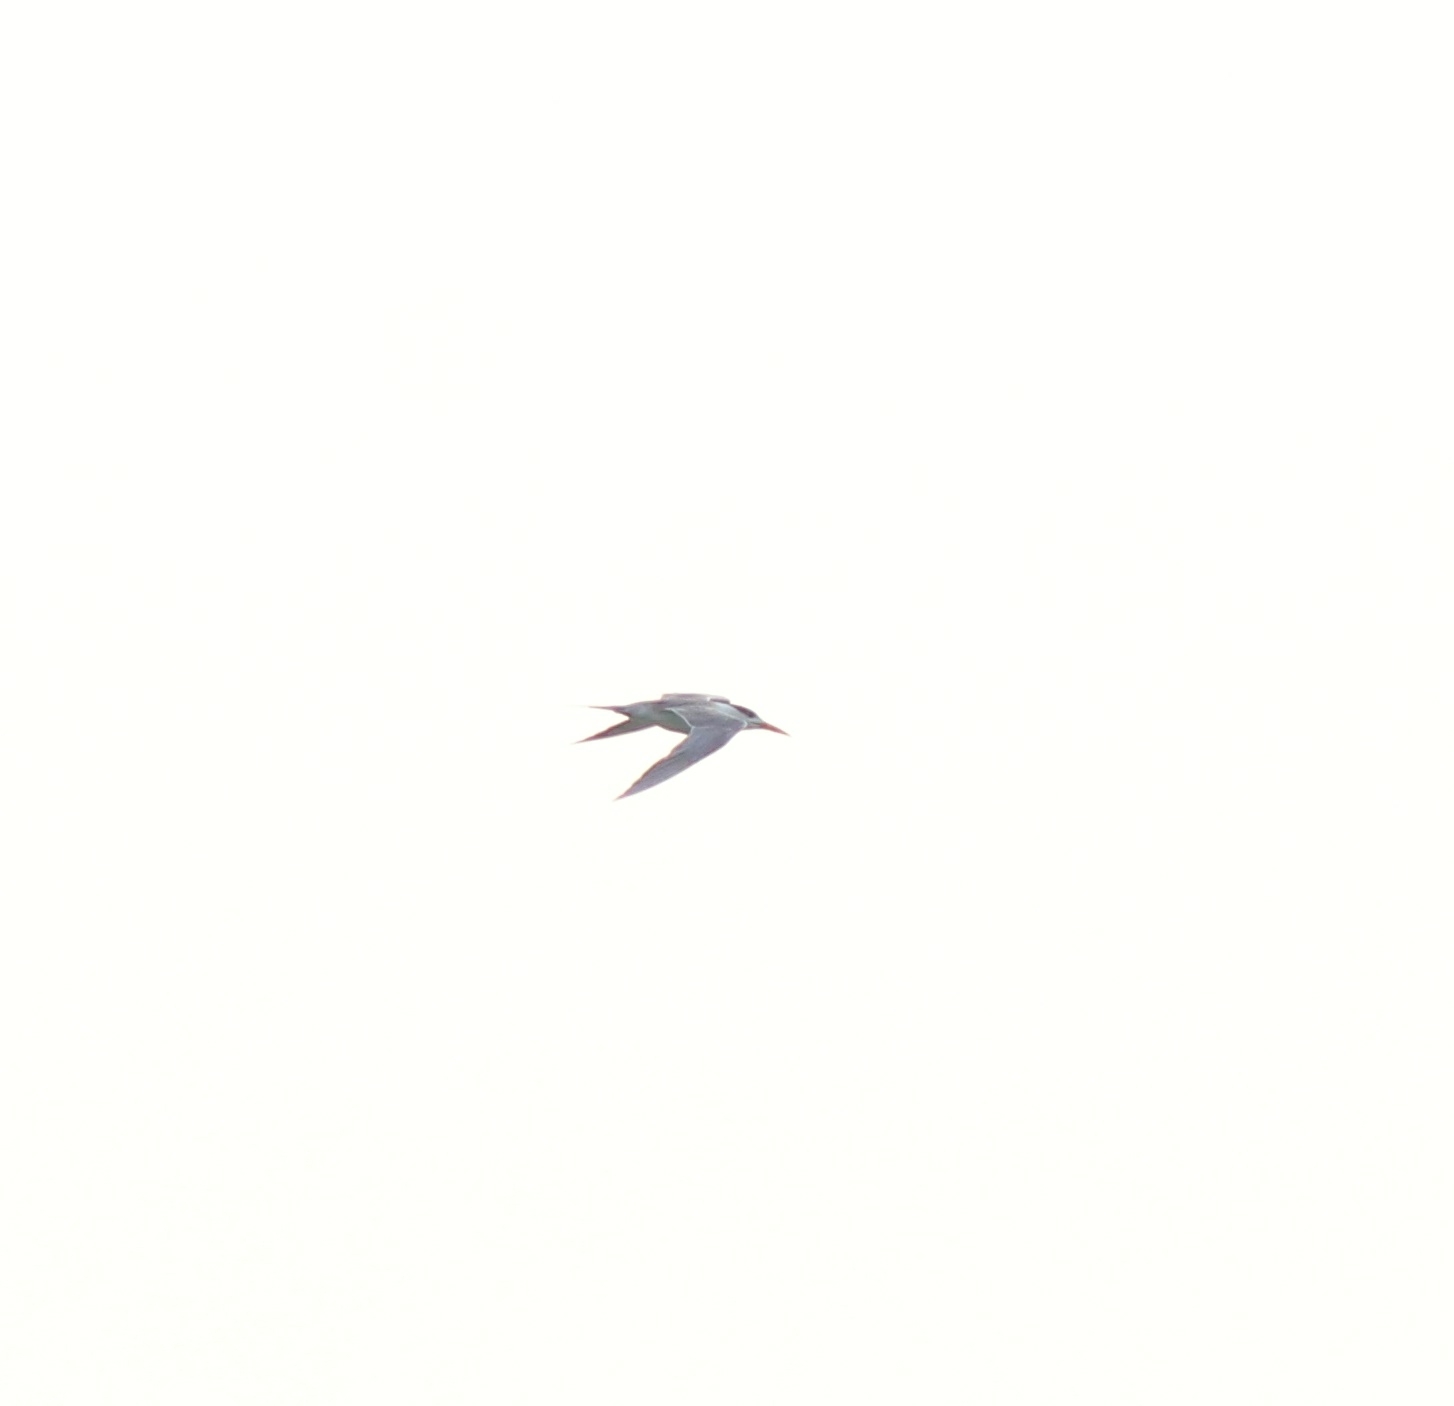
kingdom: Animalia
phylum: Chordata
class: Aves
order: Charadriiformes
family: Laridae
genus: Thalasseus
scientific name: Thalasseus bengalensis
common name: Lesser crested tern
